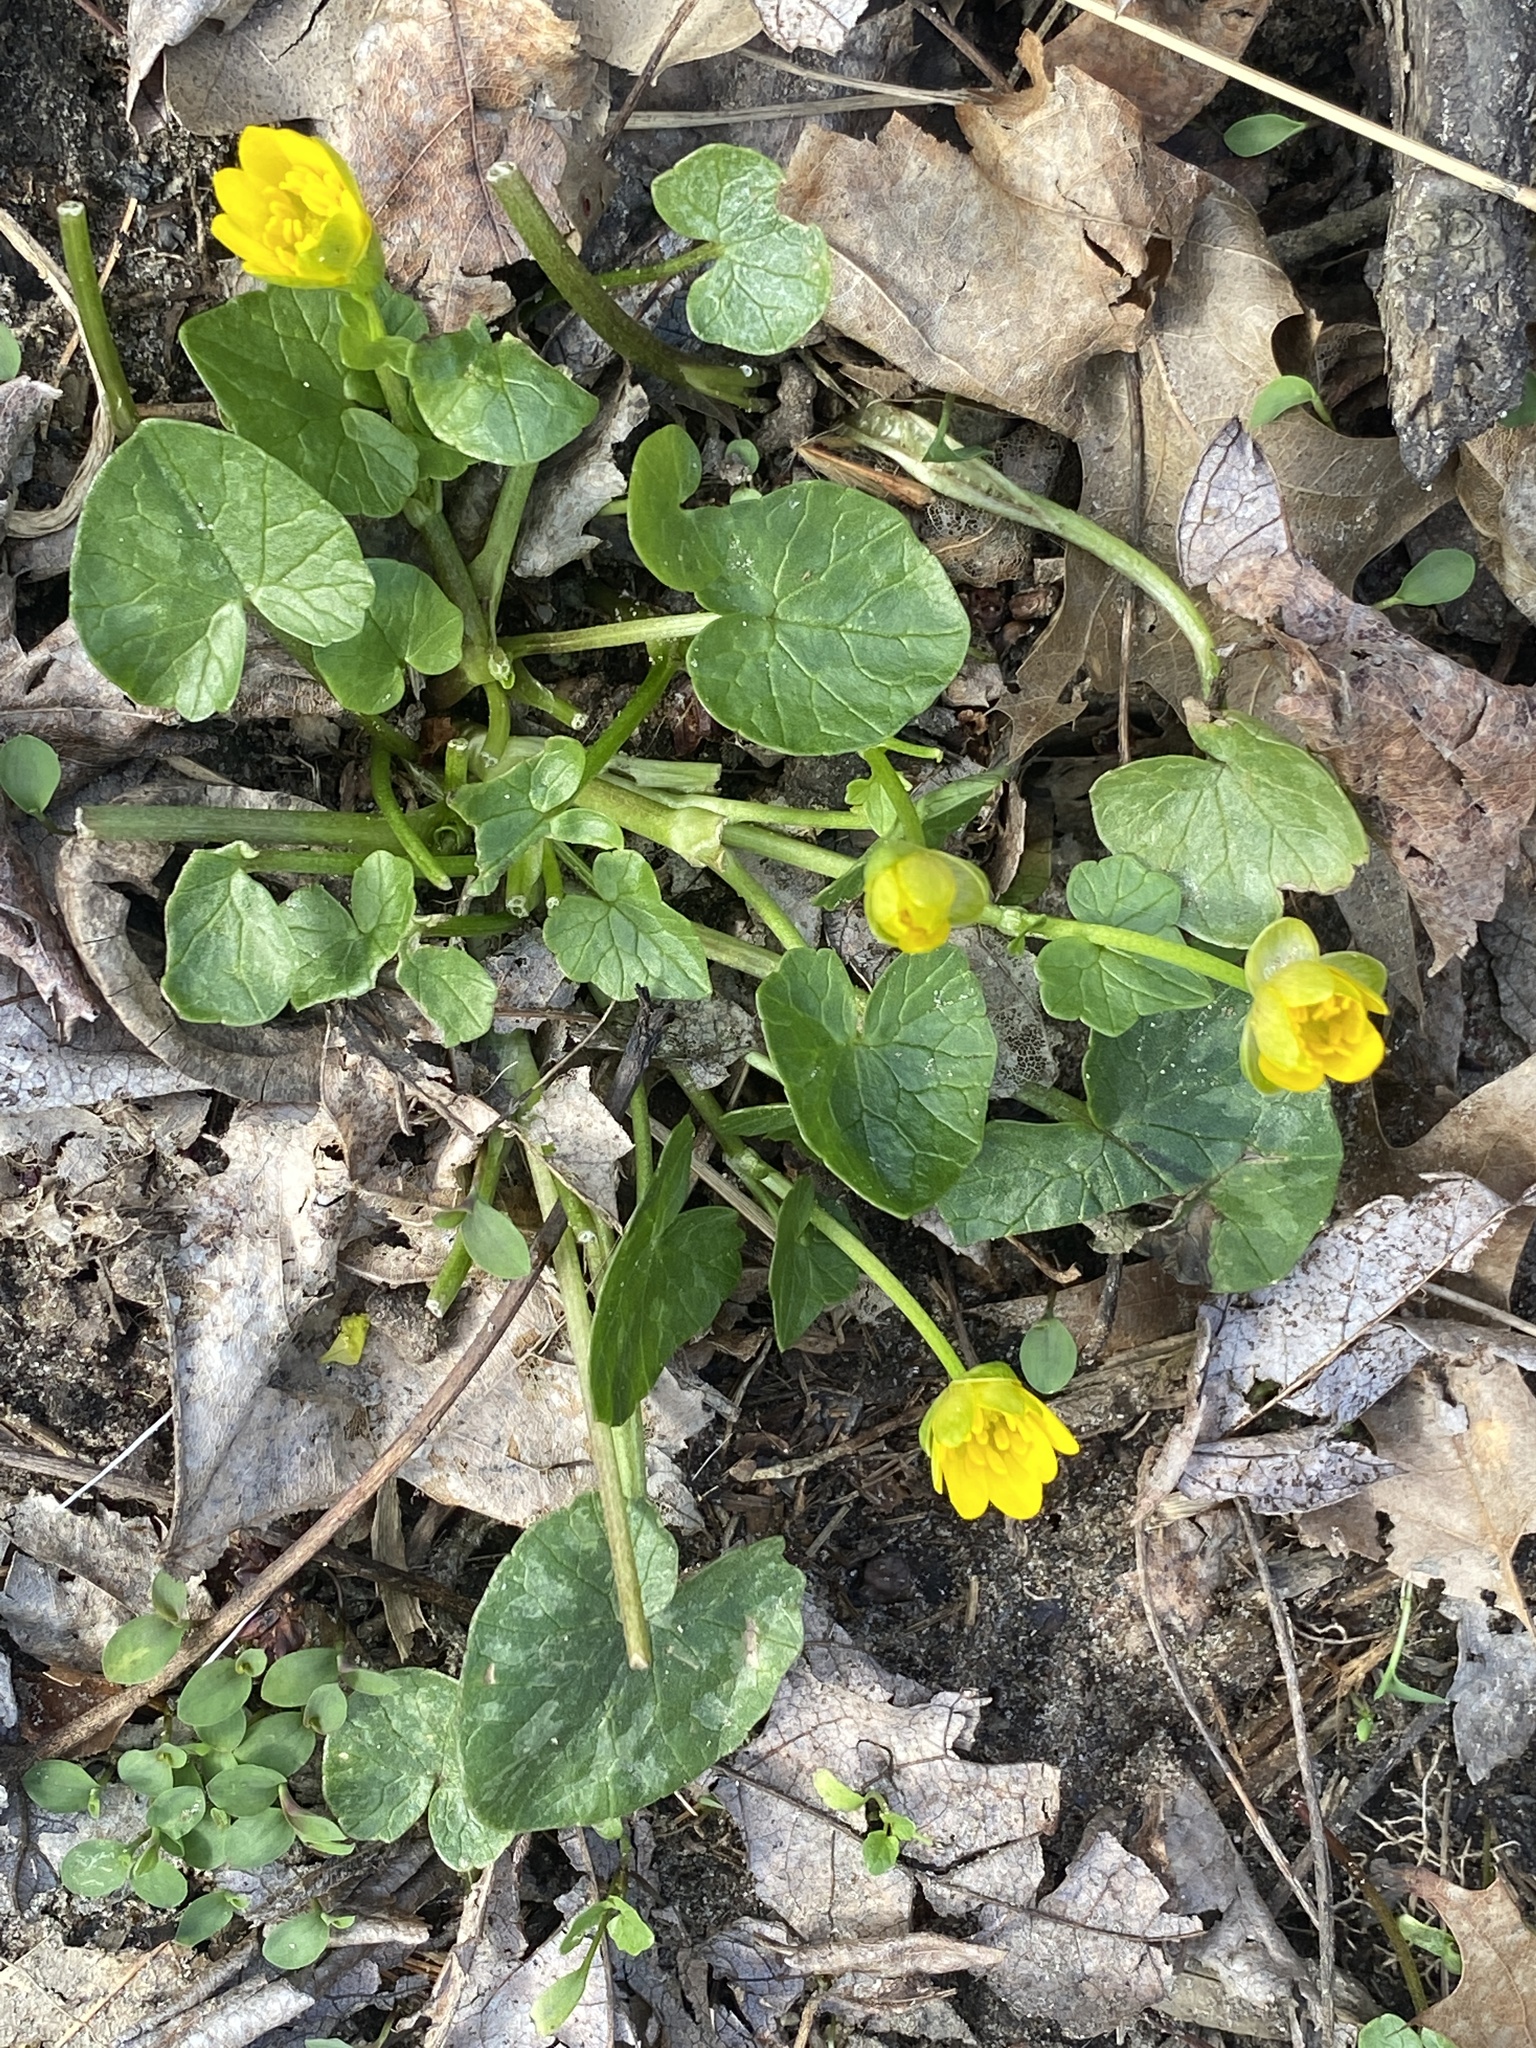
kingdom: Plantae
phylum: Tracheophyta
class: Magnoliopsida
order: Ranunculales
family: Ranunculaceae
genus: Ficaria
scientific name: Ficaria verna
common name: Lesser celandine
